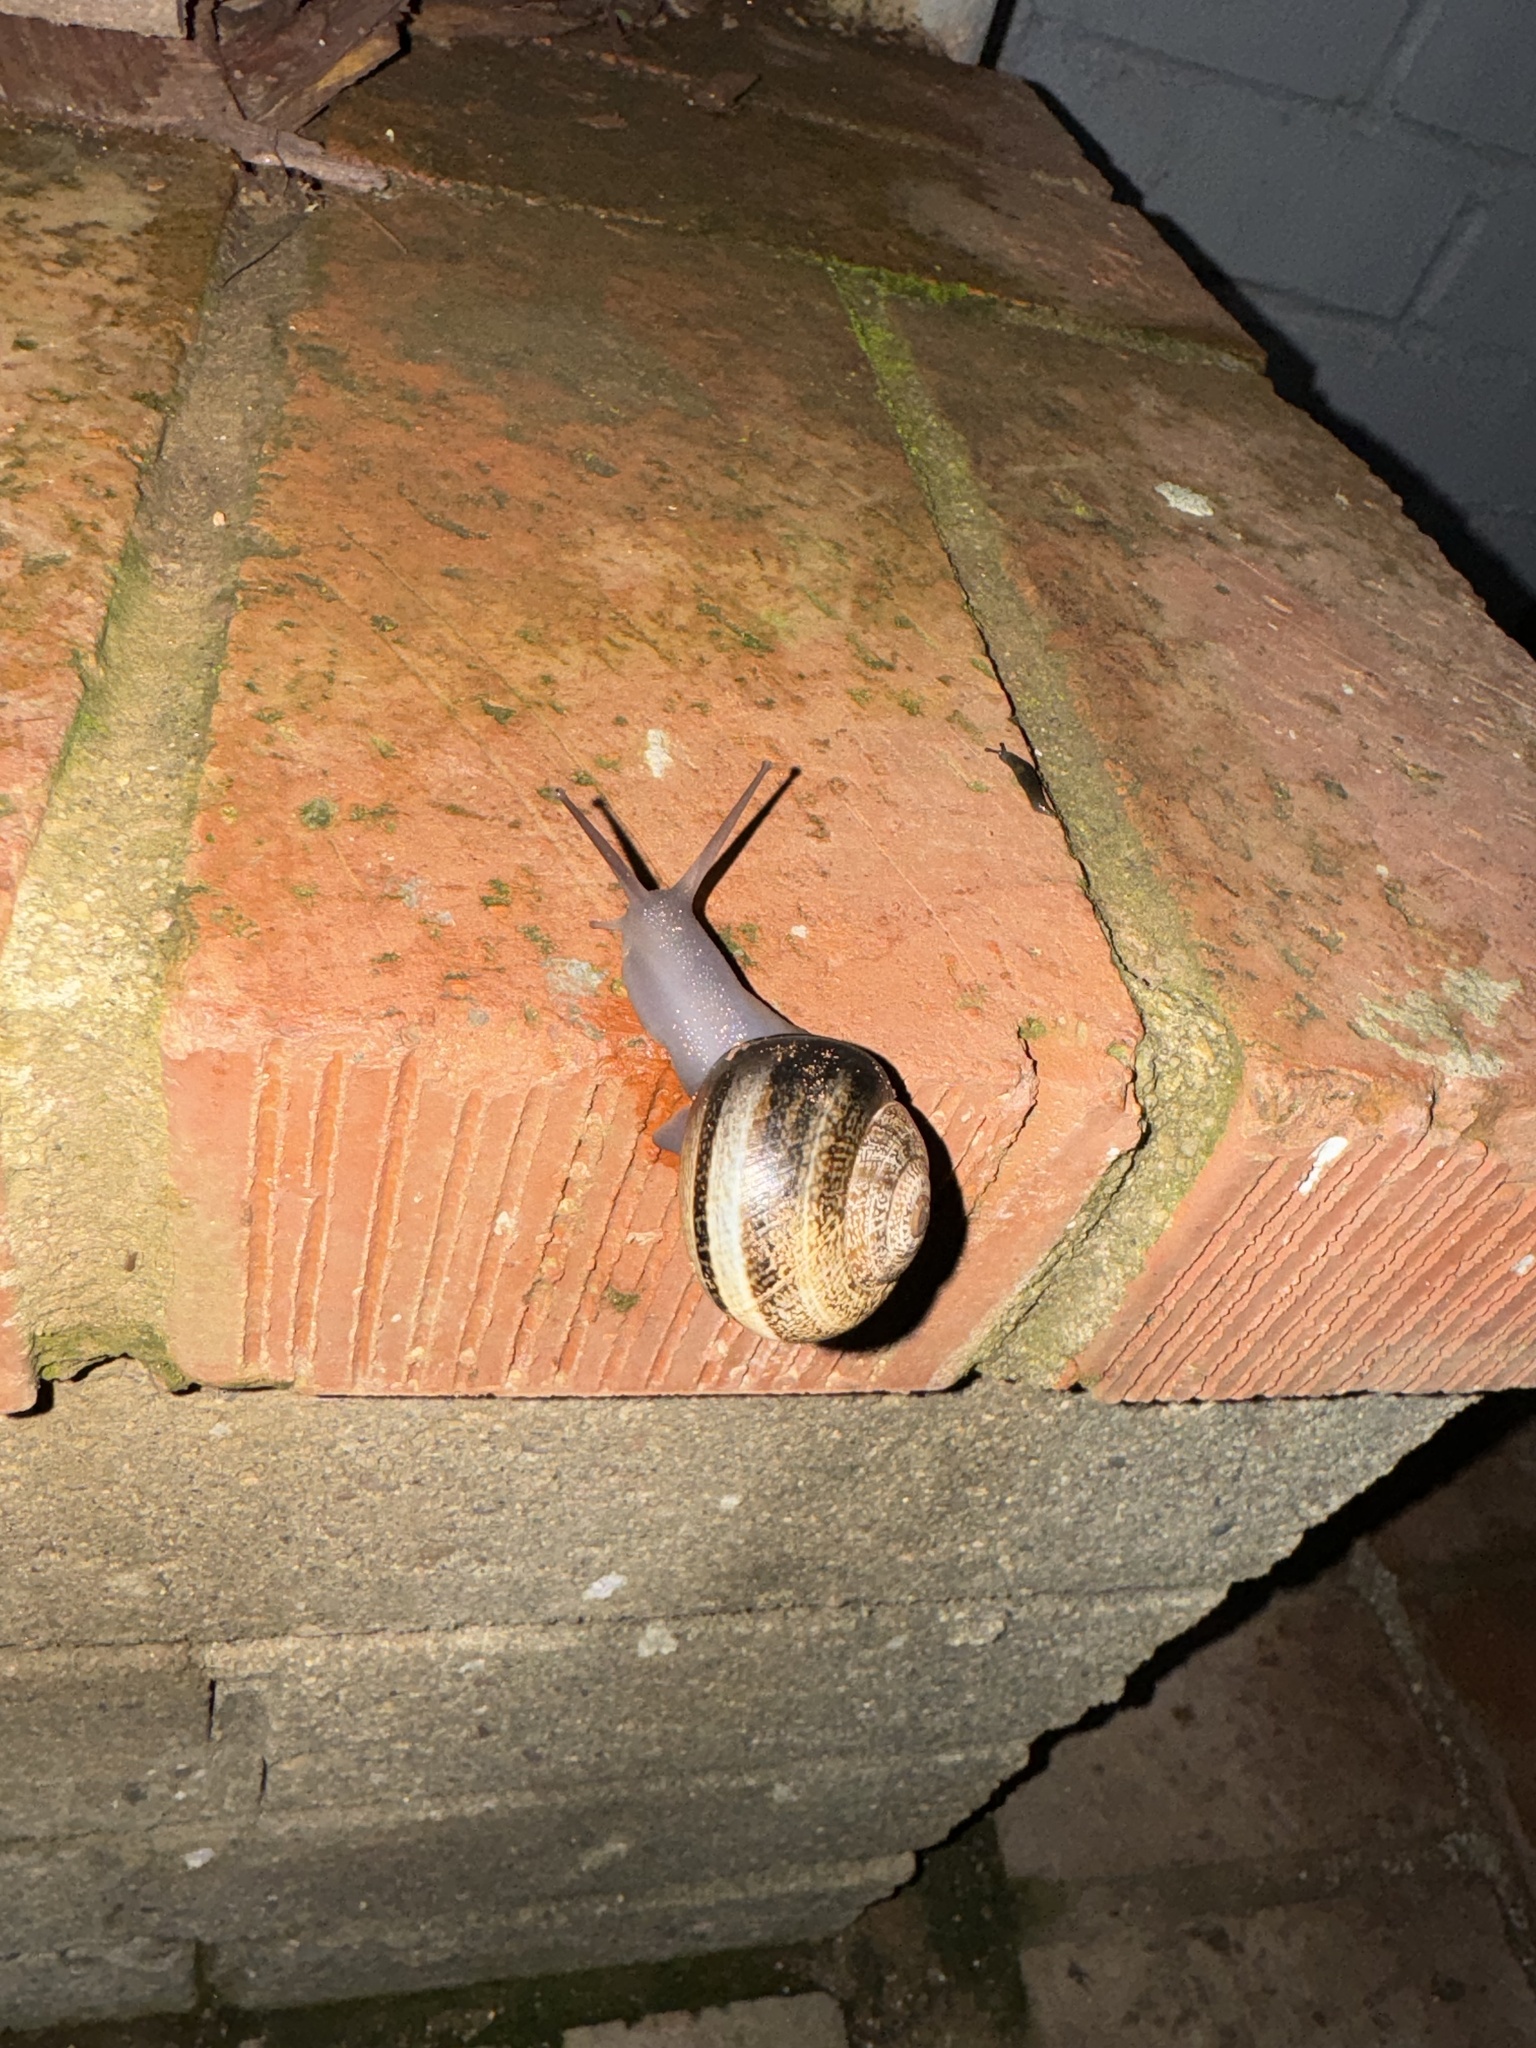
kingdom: Animalia
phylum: Mollusca
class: Gastropoda
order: Stylommatophora
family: Helicidae
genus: Otala
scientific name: Otala lactea
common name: Milk snail
